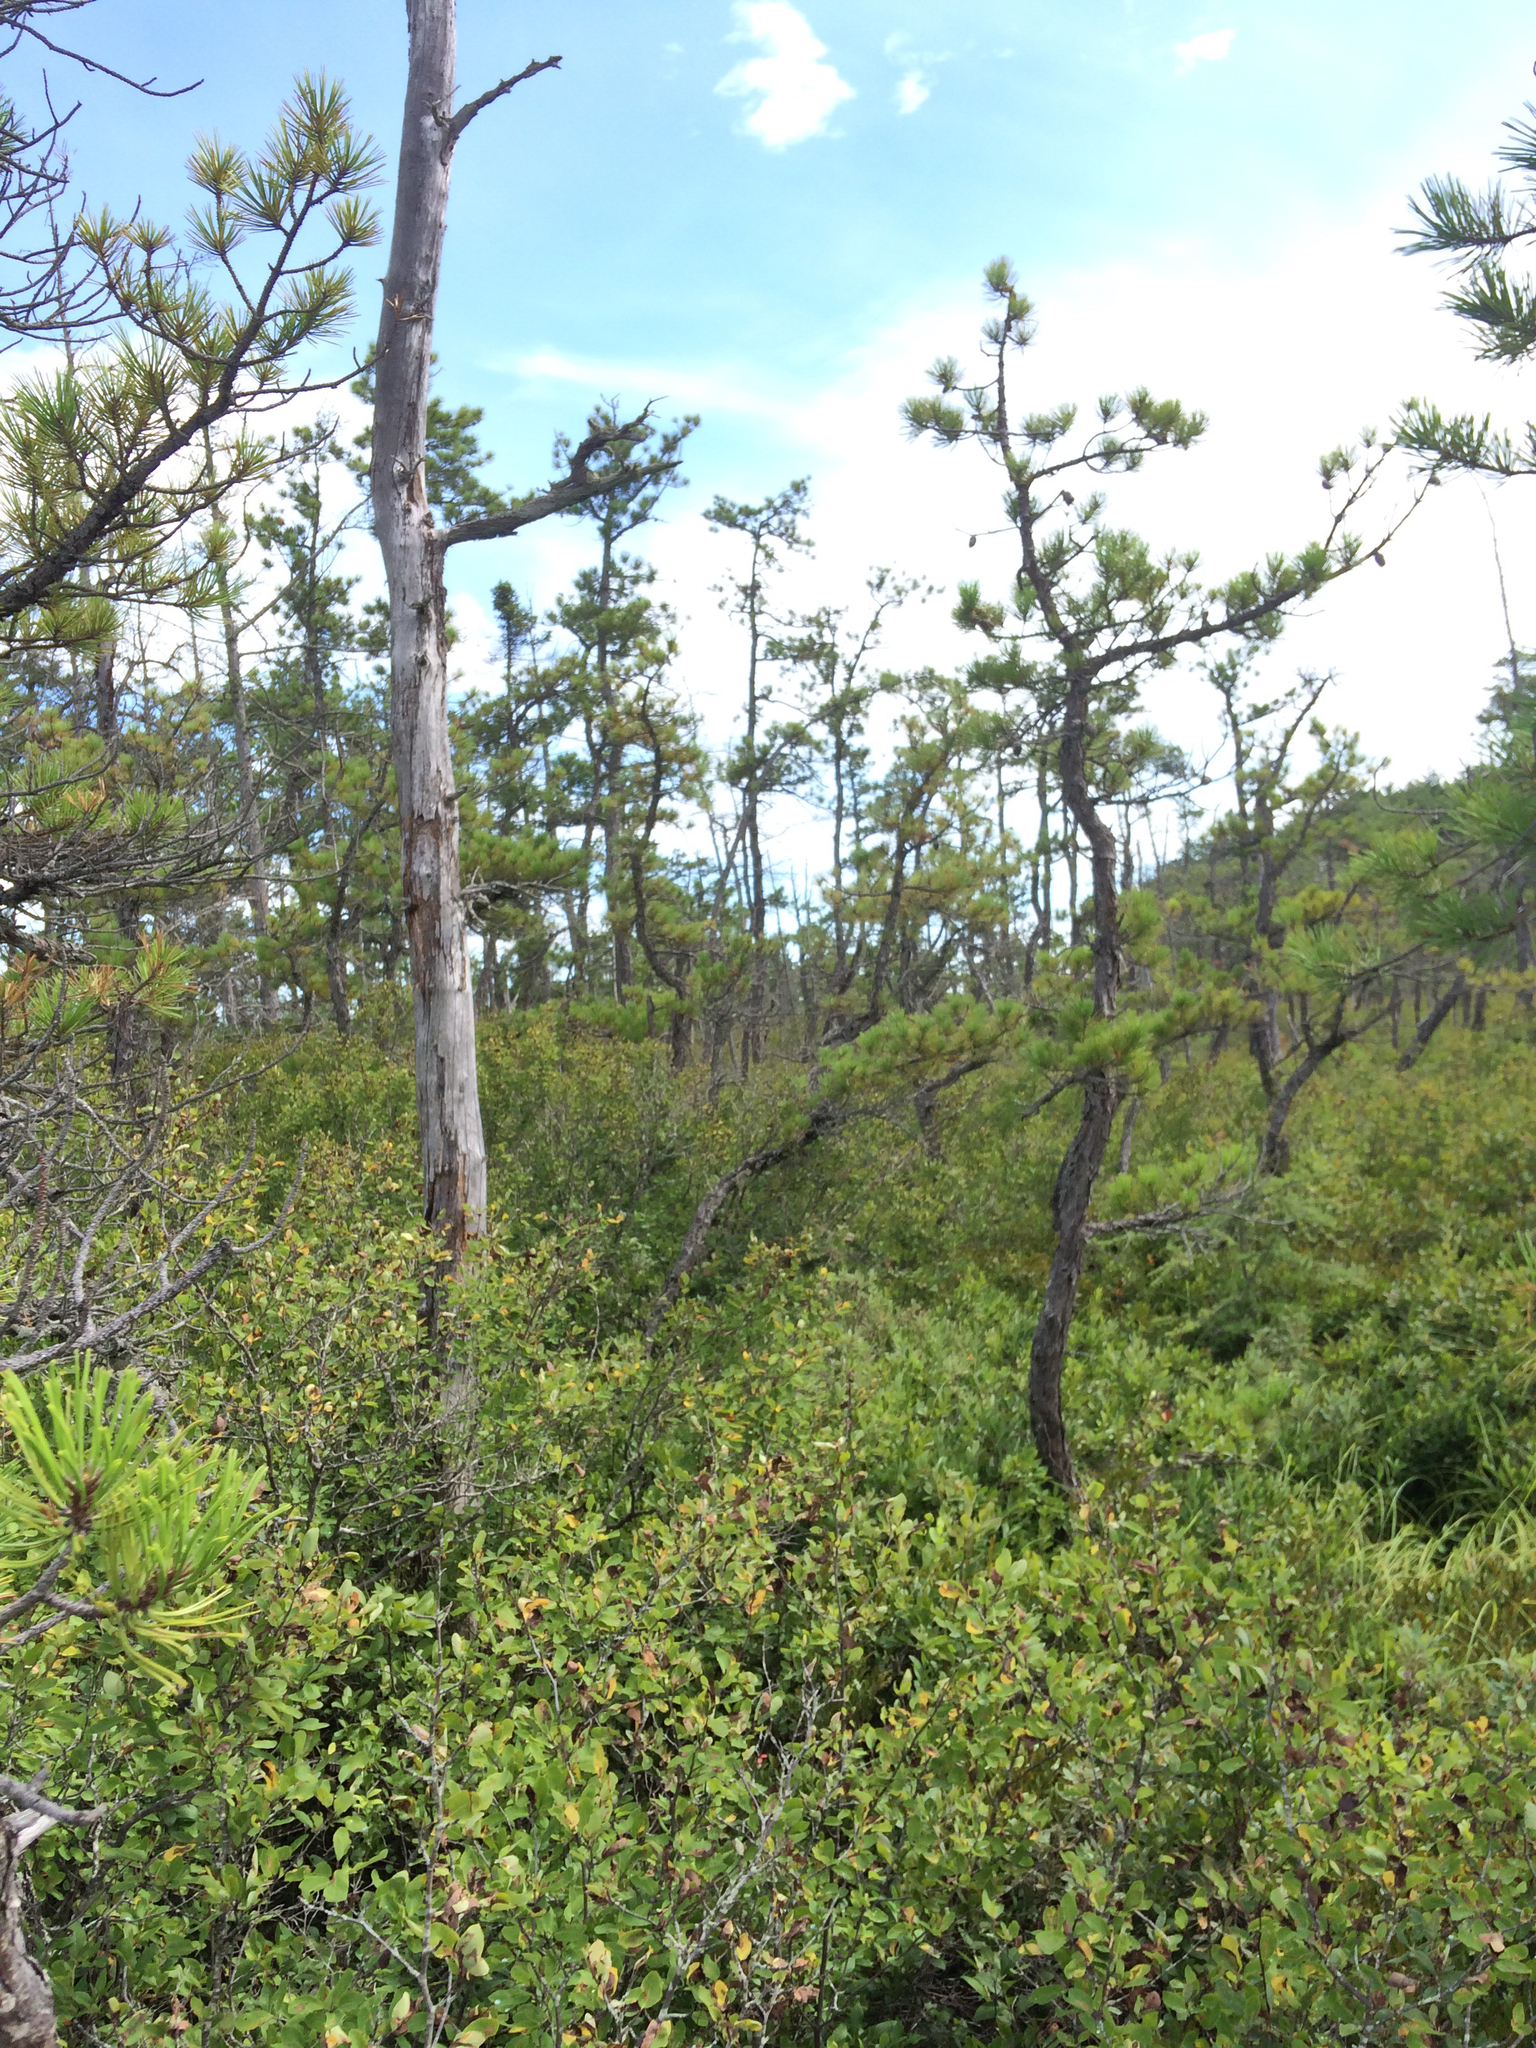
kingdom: Plantae
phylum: Tracheophyta
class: Pinopsida
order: Pinales
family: Pinaceae
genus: Pinus
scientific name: Pinus rigida
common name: Pitch pine
